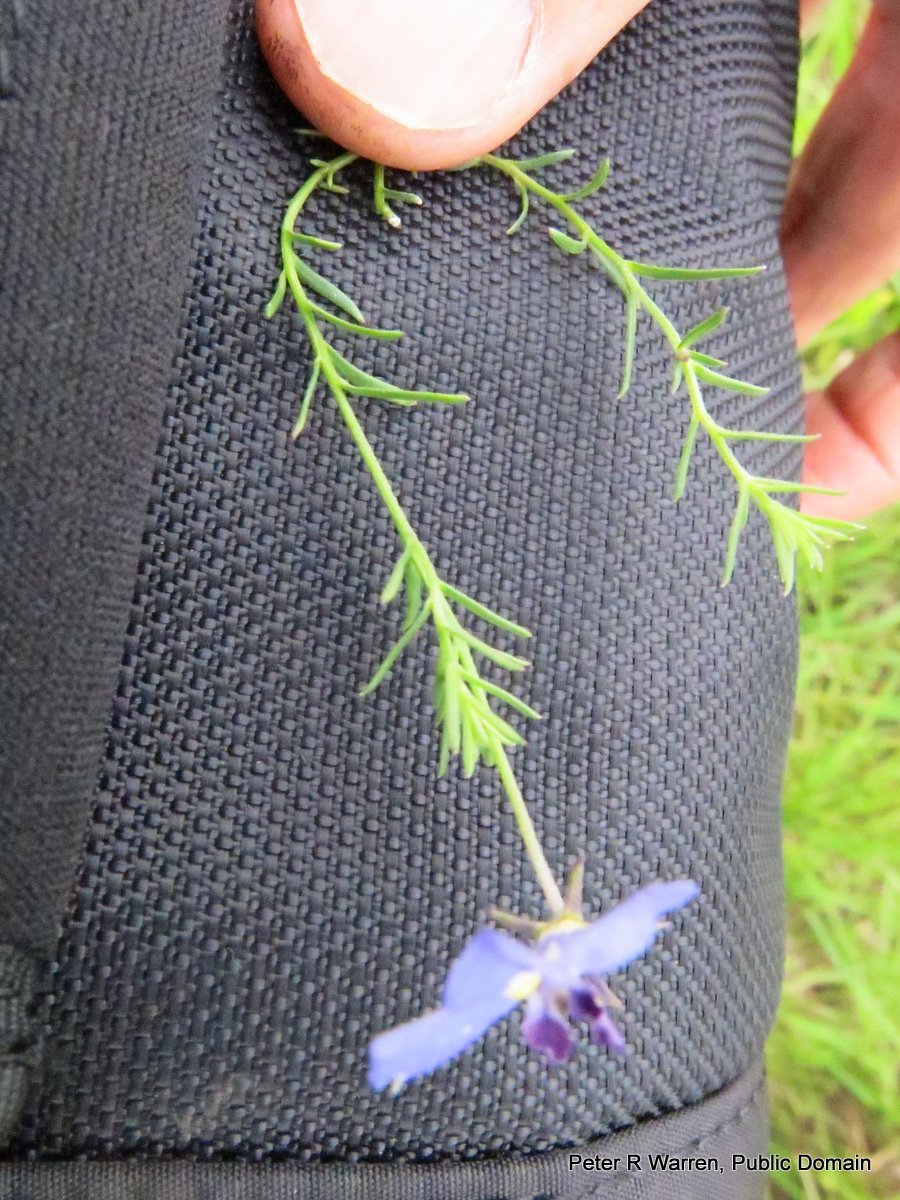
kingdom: Plantae
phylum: Tracheophyta
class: Magnoliopsida
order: Asterales
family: Campanulaceae
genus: Monopsis
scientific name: Monopsis decipiens
